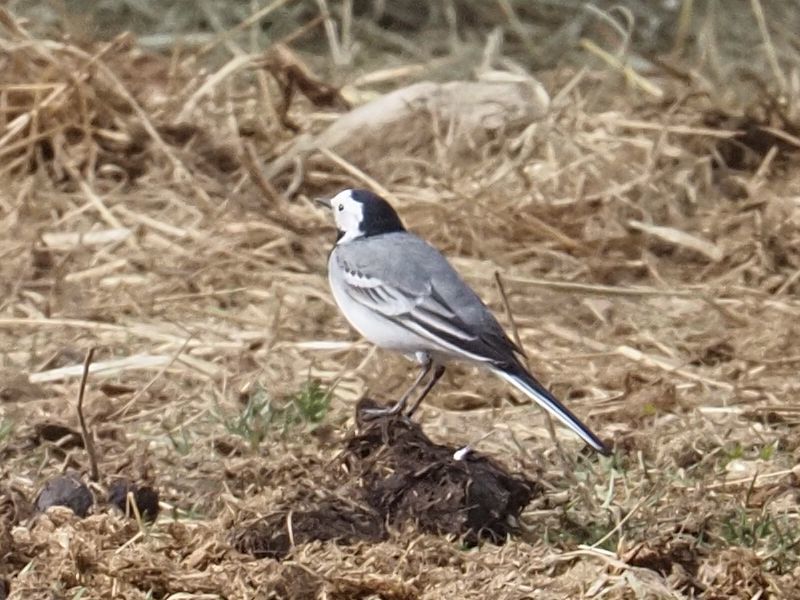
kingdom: Animalia
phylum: Chordata
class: Aves
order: Passeriformes
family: Motacillidae
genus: Motacilla
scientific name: Motacilla alba
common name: White wagtail
